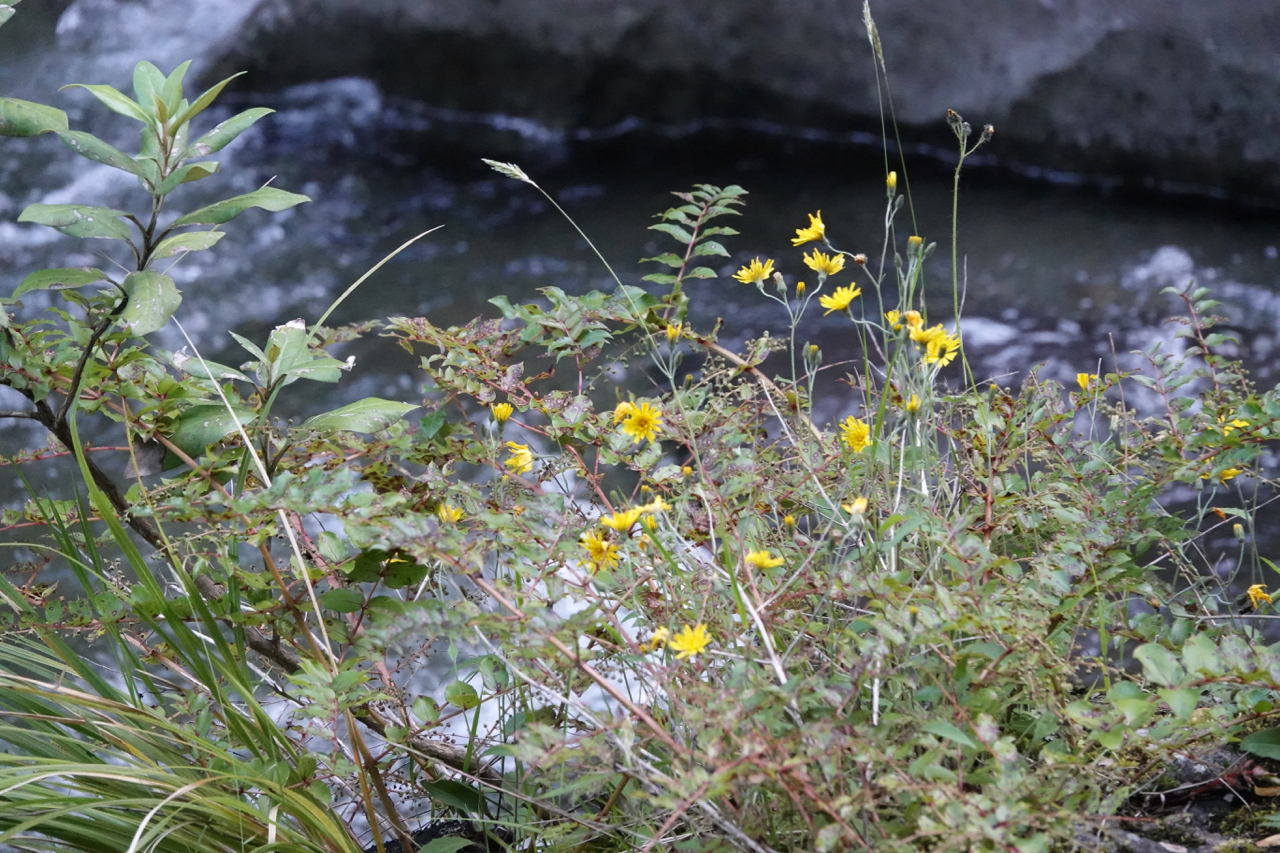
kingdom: Plantae
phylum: Tracheophyta
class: Magnoliopsida
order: Asterales
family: Asteraceae
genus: Hieracium
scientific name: Hieracium lepidulum
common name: Irregular-toothed hawkweed
